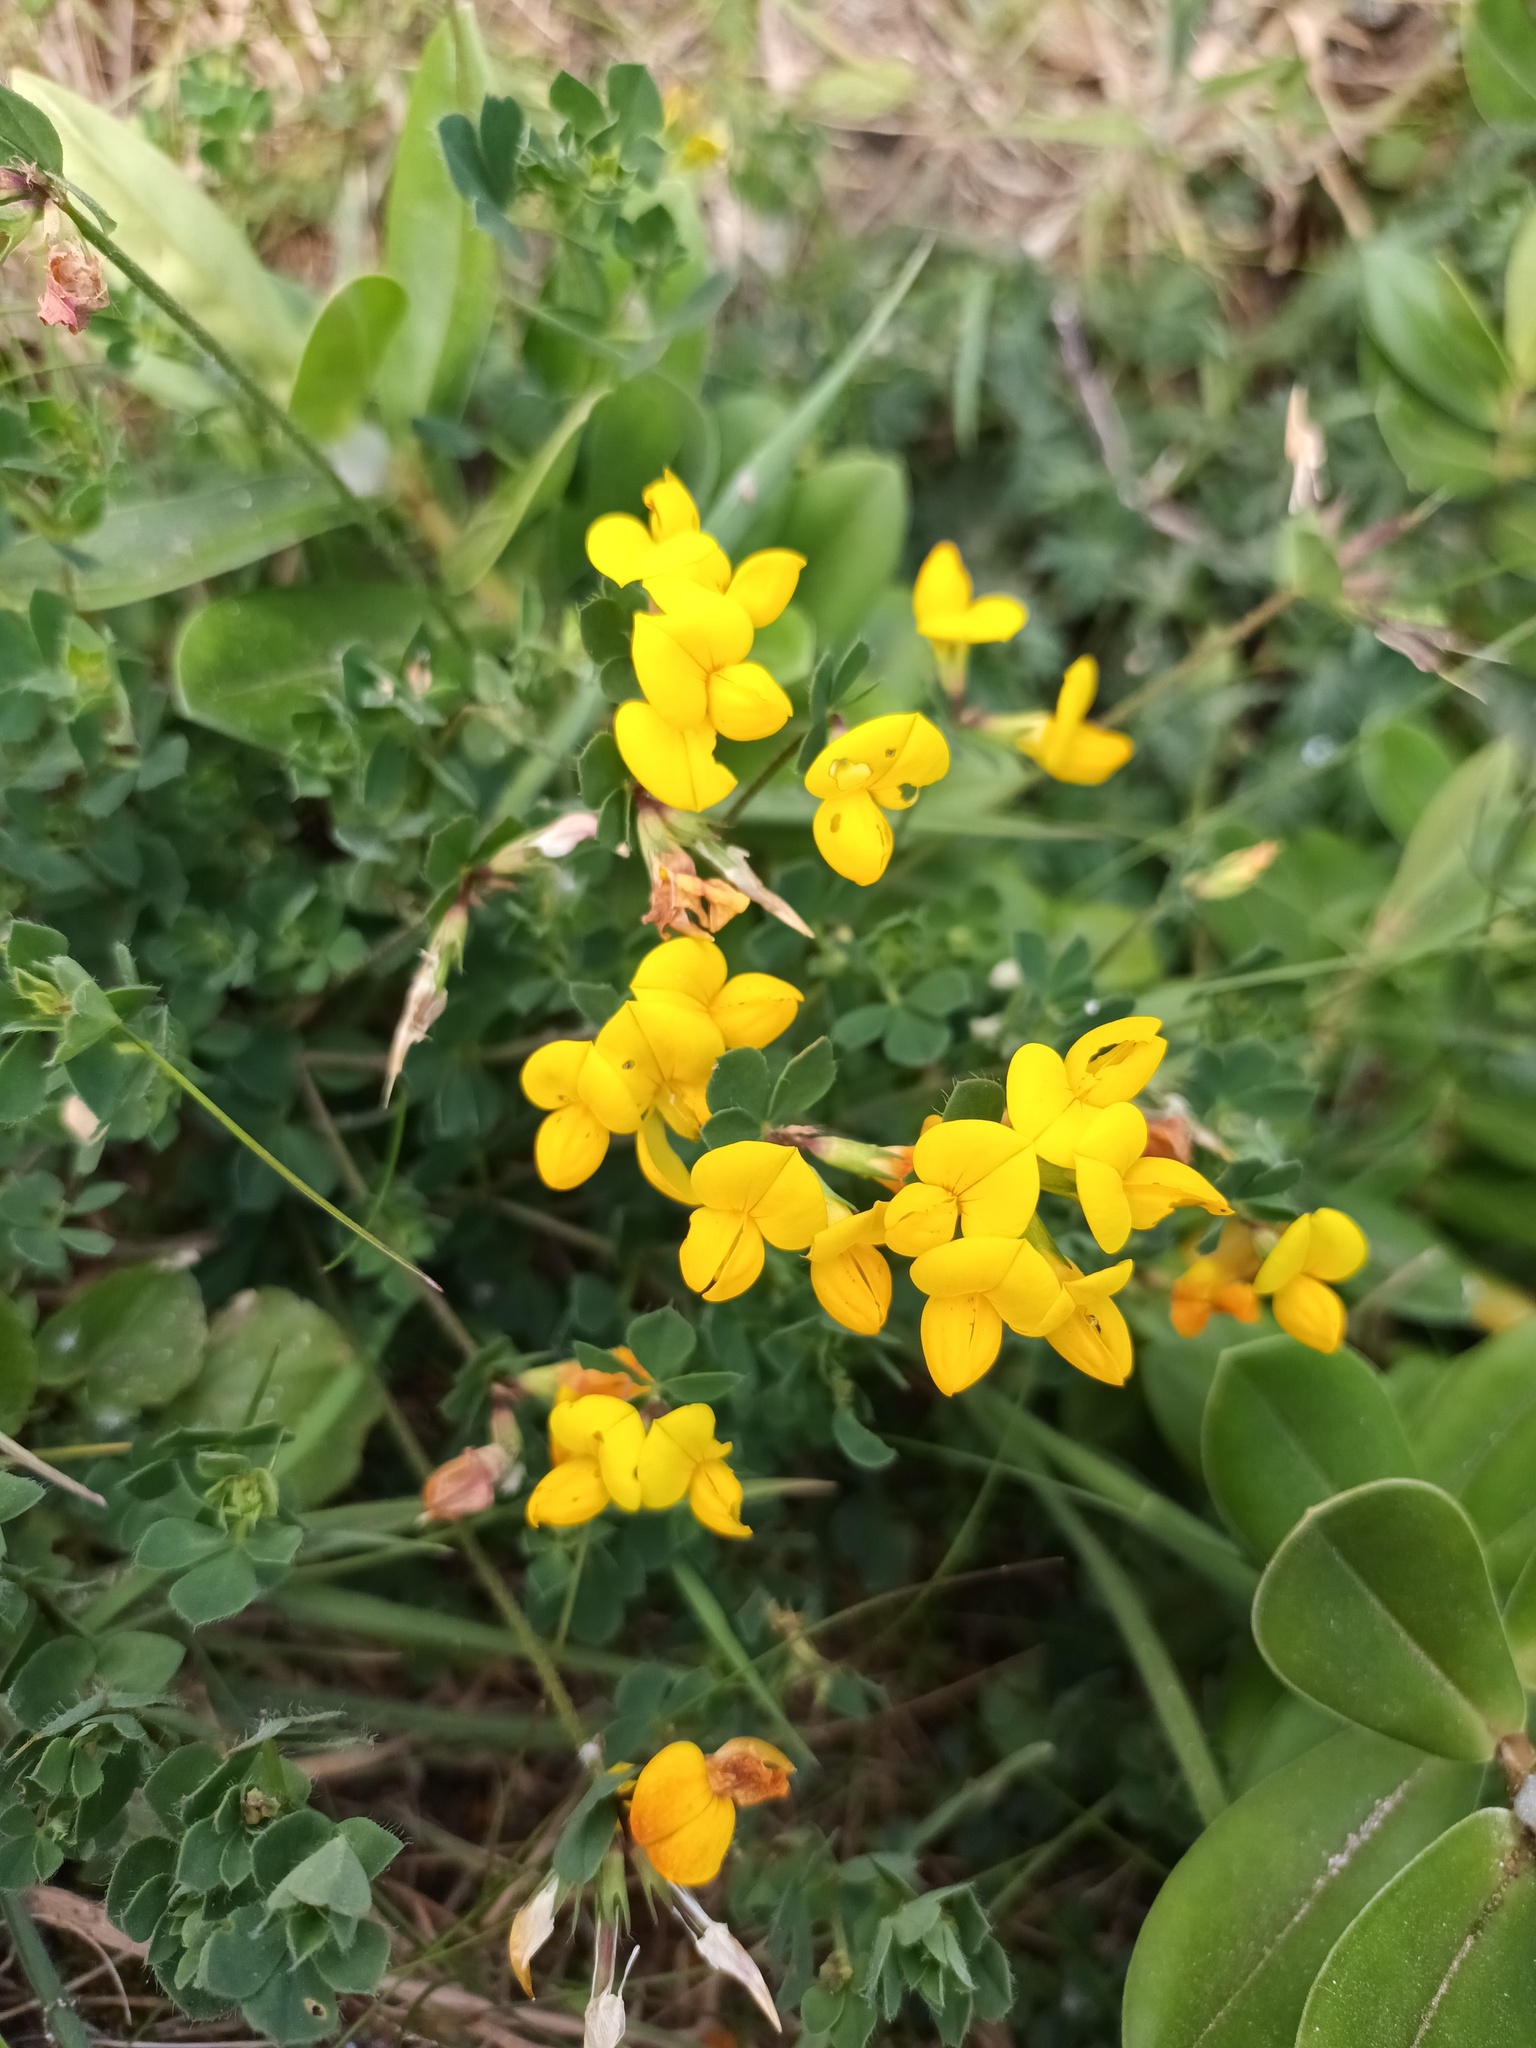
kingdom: Plantae
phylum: Tracheophyta
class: Magnoliopsida
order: Fabales
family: Fabaceae
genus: Lotus
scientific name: Lotus corniculatus
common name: Common bird's-foot-trefoil
